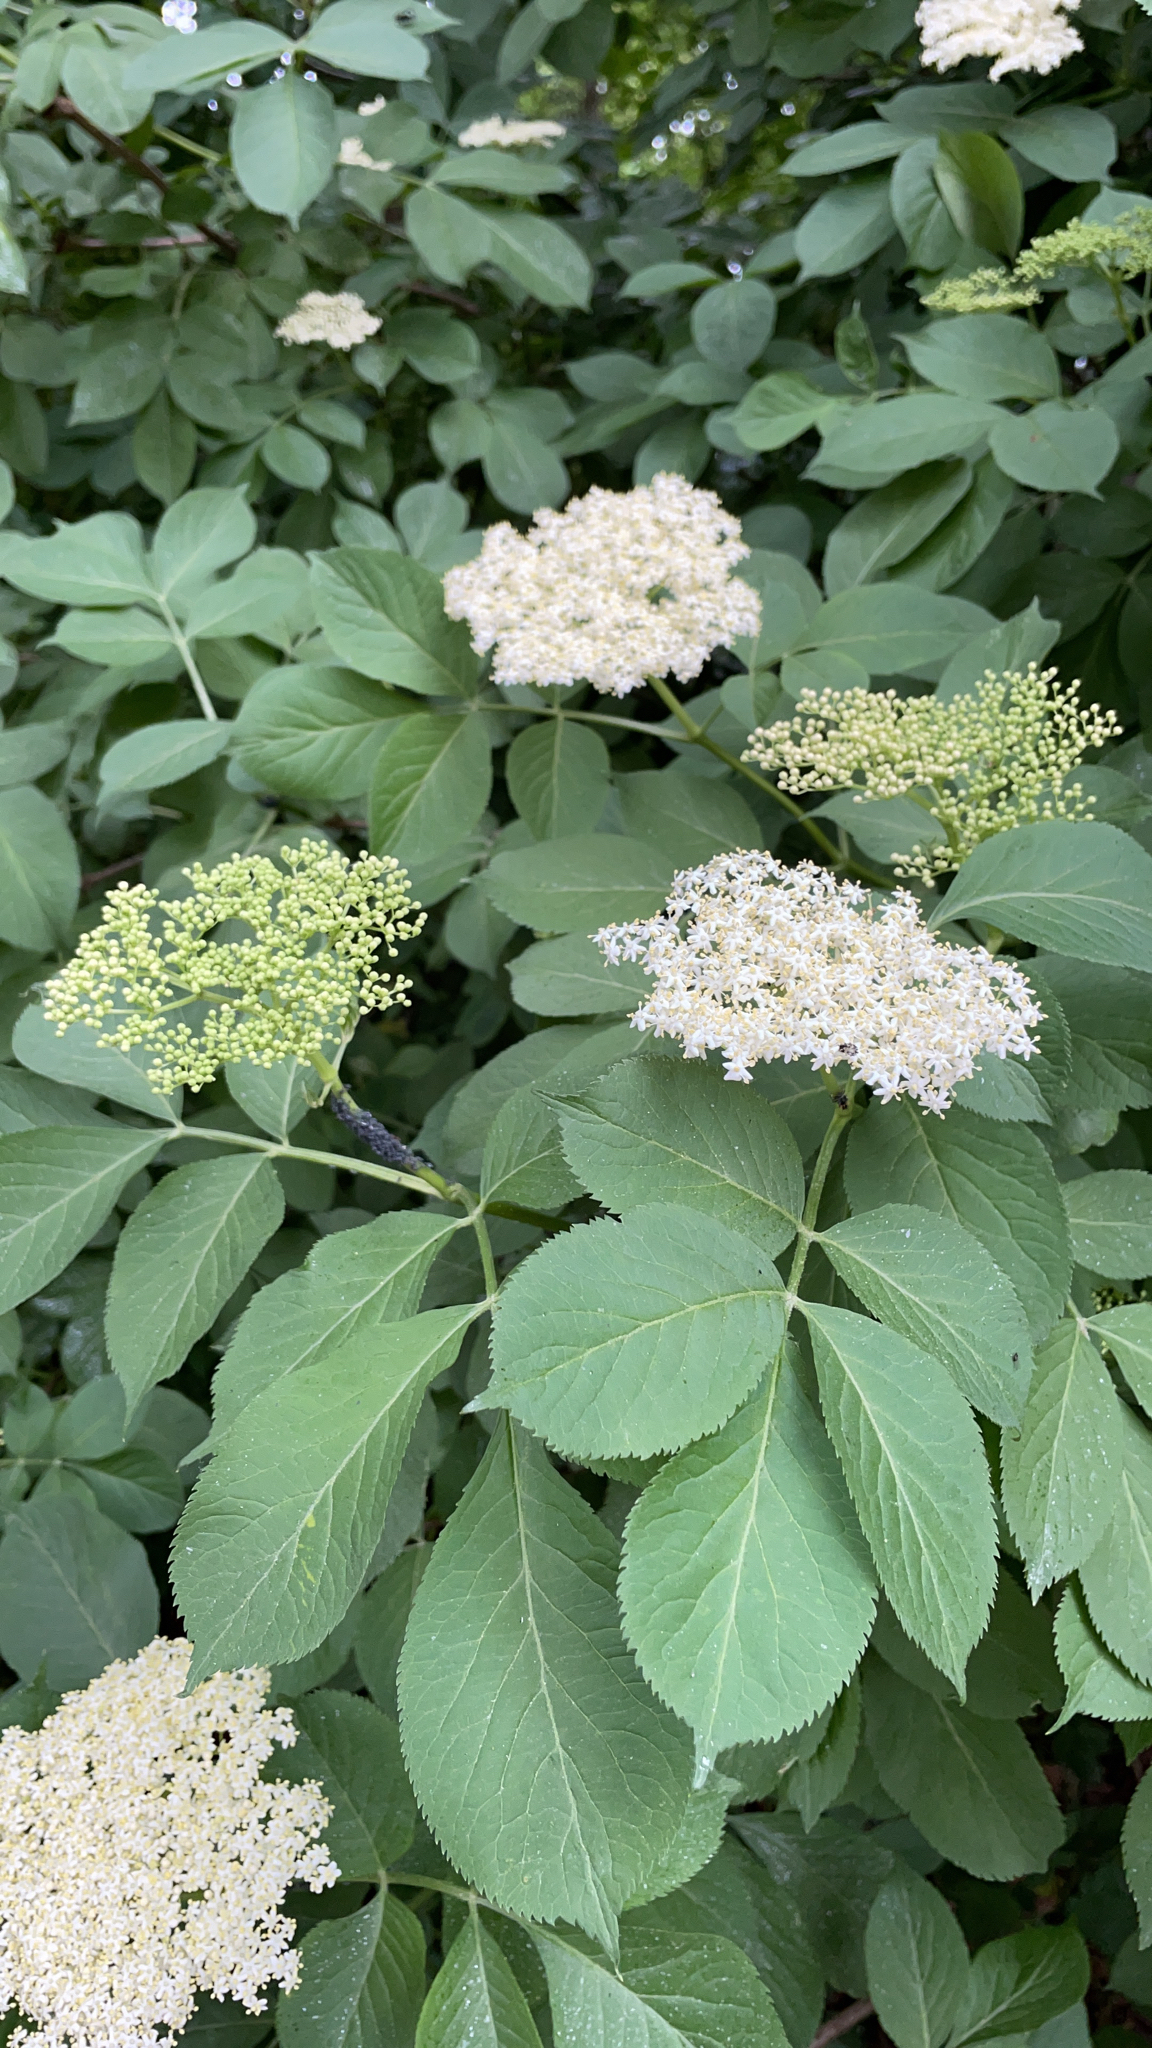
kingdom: Plantae
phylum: Tracheophyta
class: Magnoliopsida
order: Dipsacales
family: Viburnaceae
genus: Sambucus
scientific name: Sambucus nigra
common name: Elder
